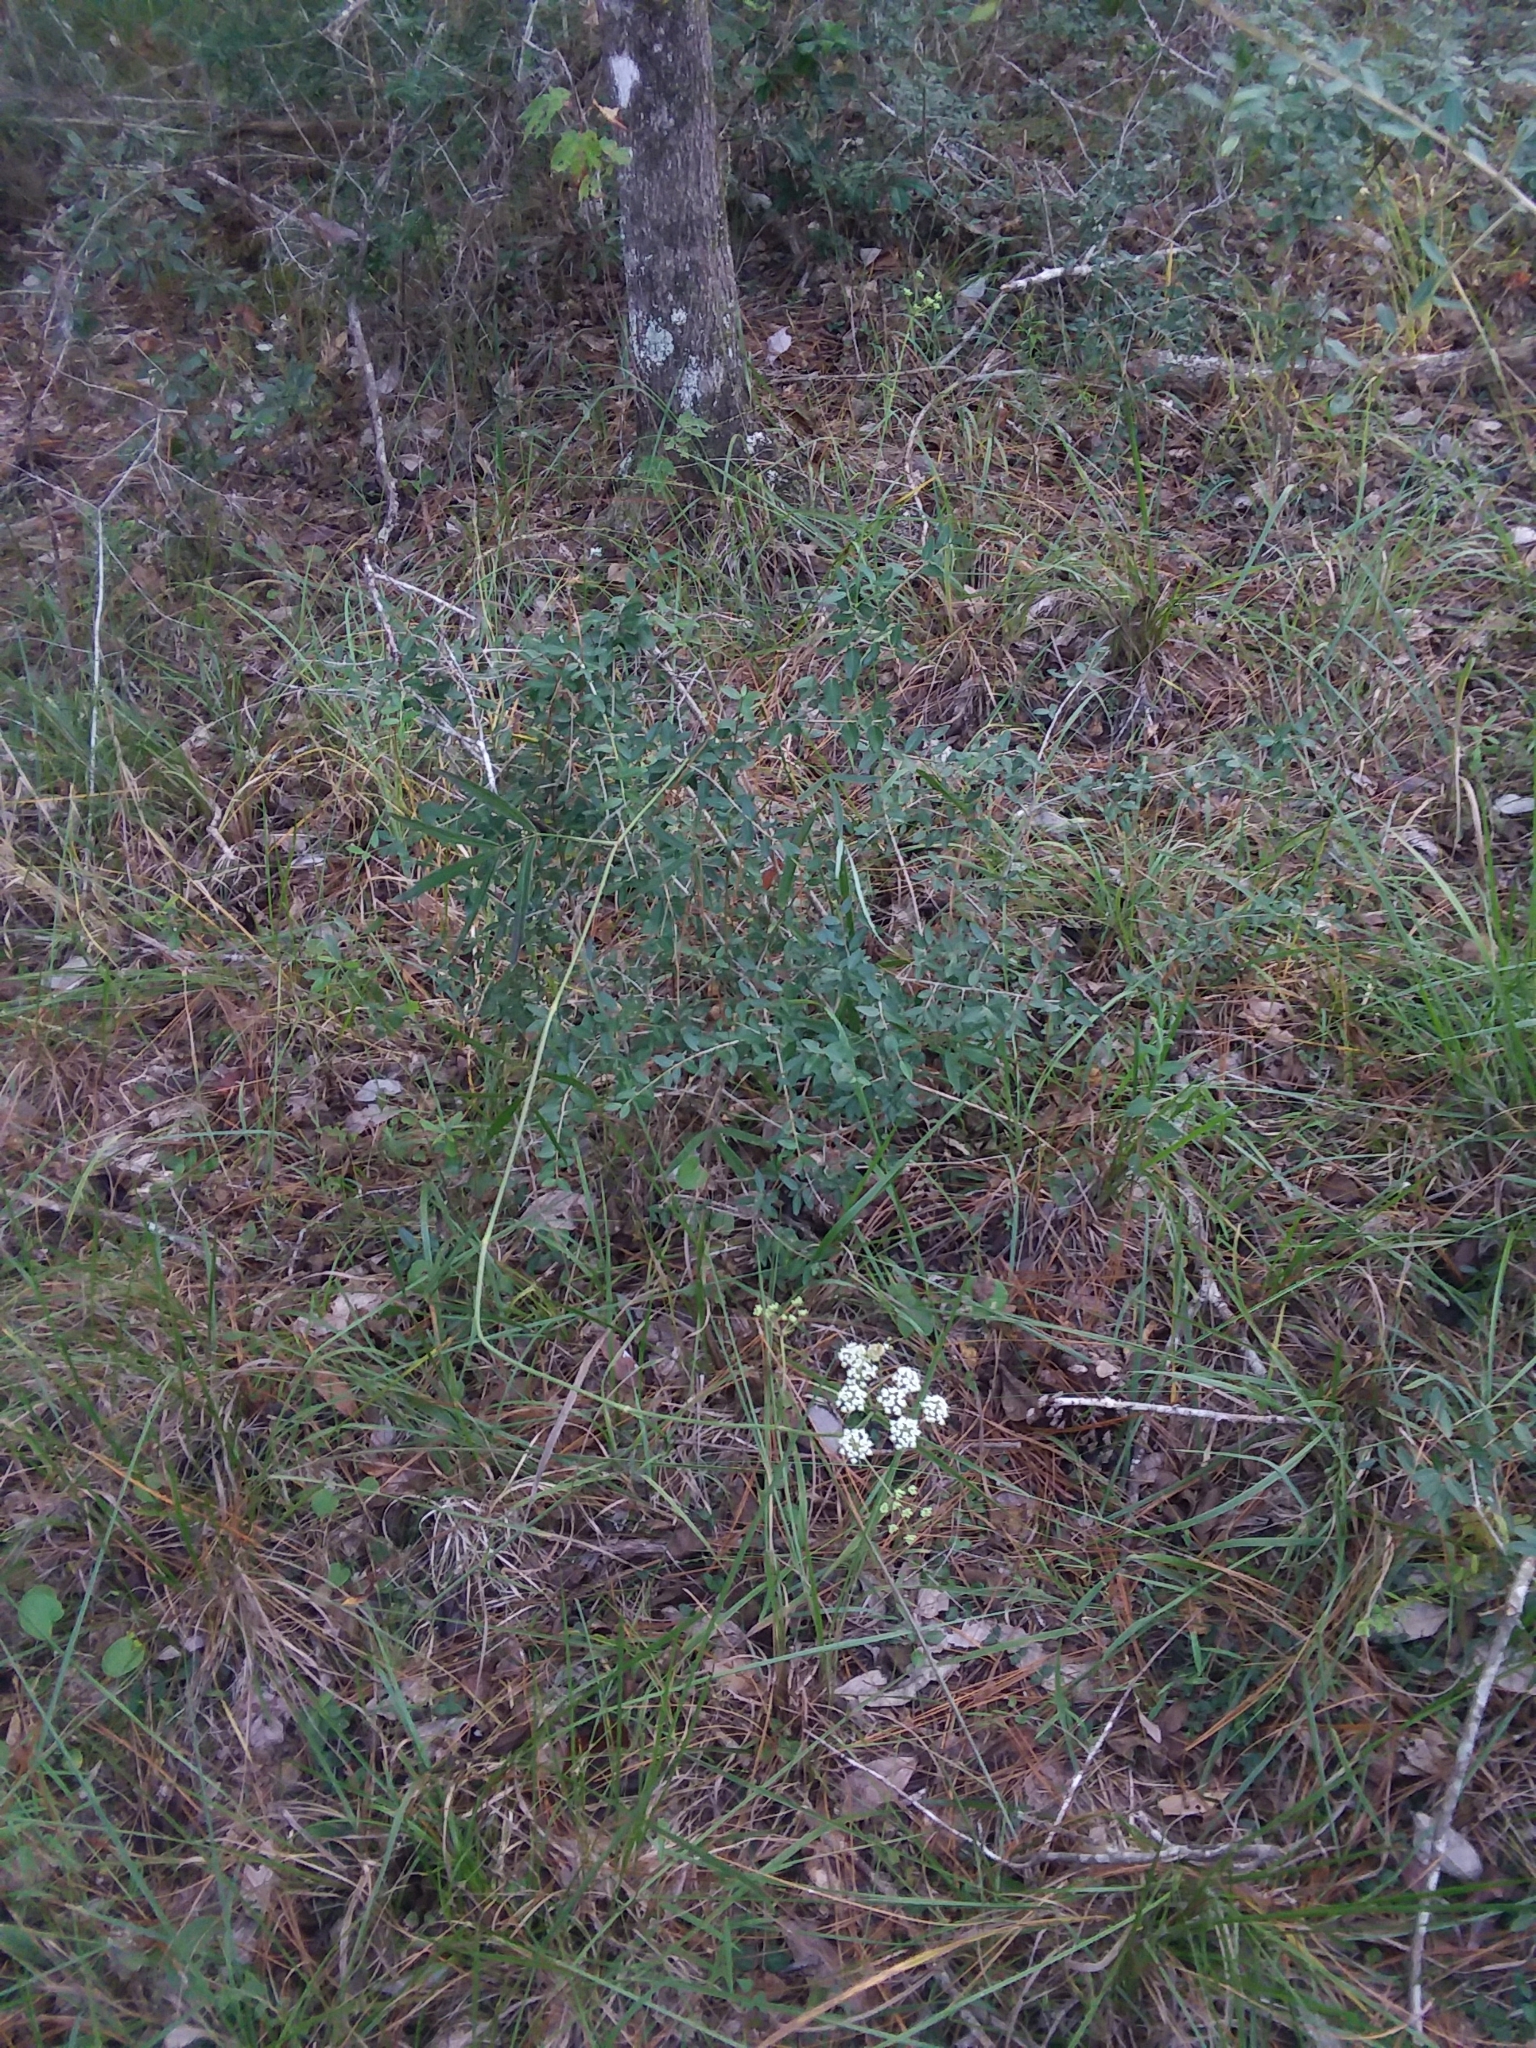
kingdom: Plantae
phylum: Tracheophyta
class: Magnoliopsida
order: Apiales
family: Apiaceae
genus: Oxypolis
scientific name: Oxypolis rigidior
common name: Cowbane
